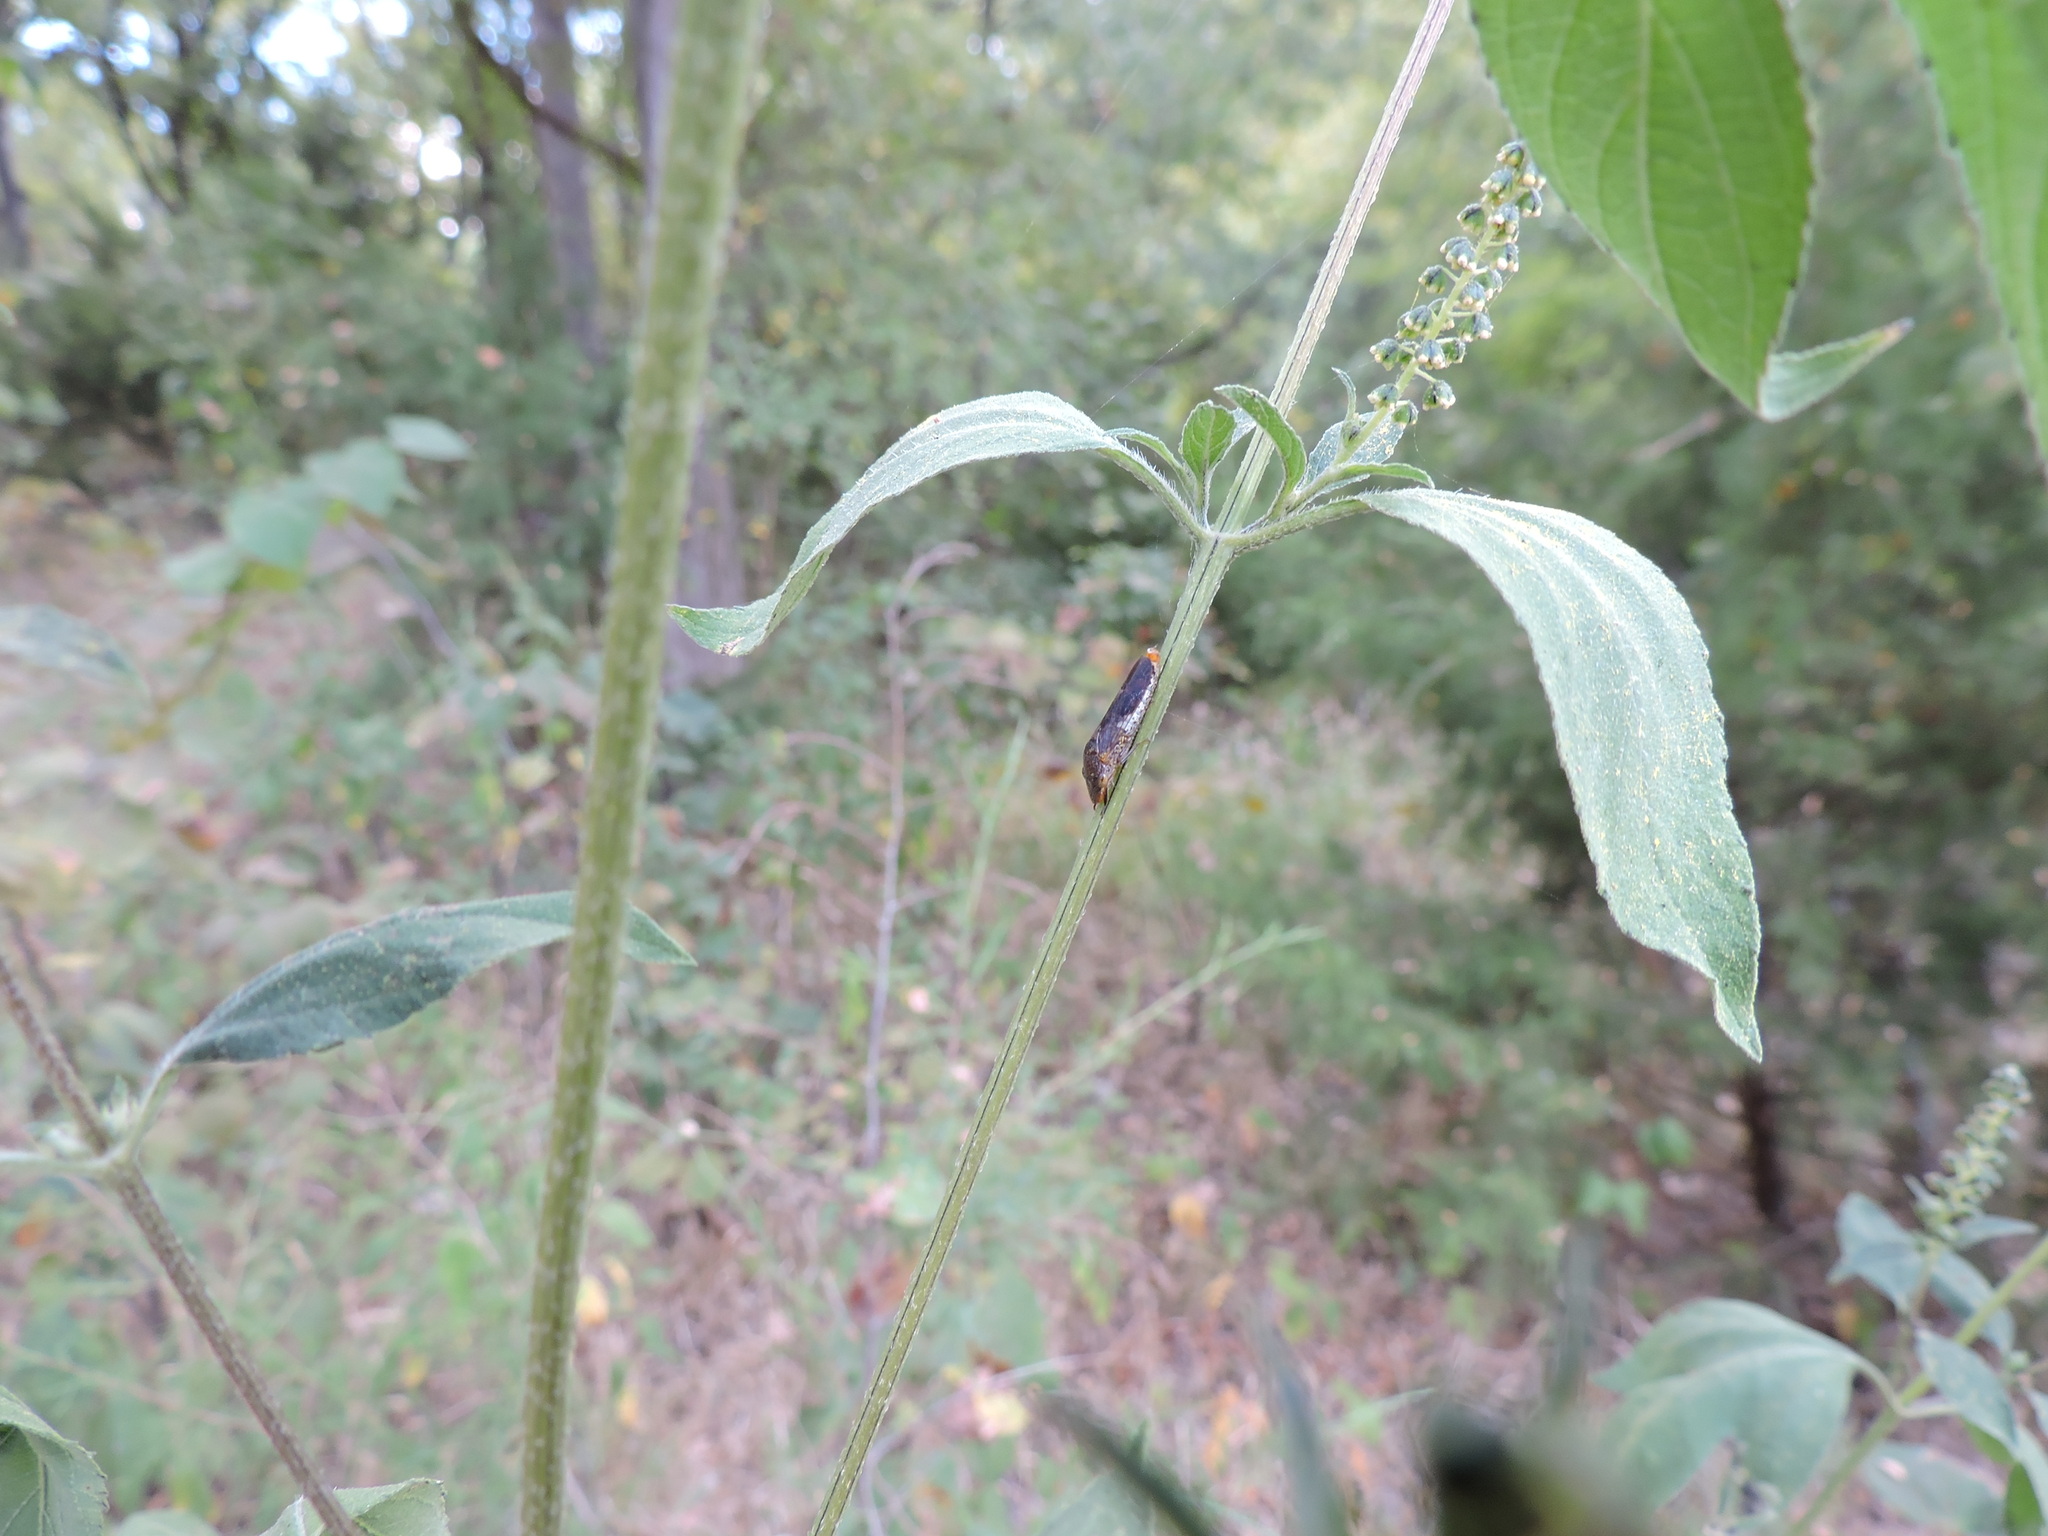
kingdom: Animalia
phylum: Arthropoda
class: Insecta
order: Hemiptera
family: Cicadellidae
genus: Homalodisca
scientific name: Homalodisca vitripennis
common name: Glassy-winged sharpshooter
